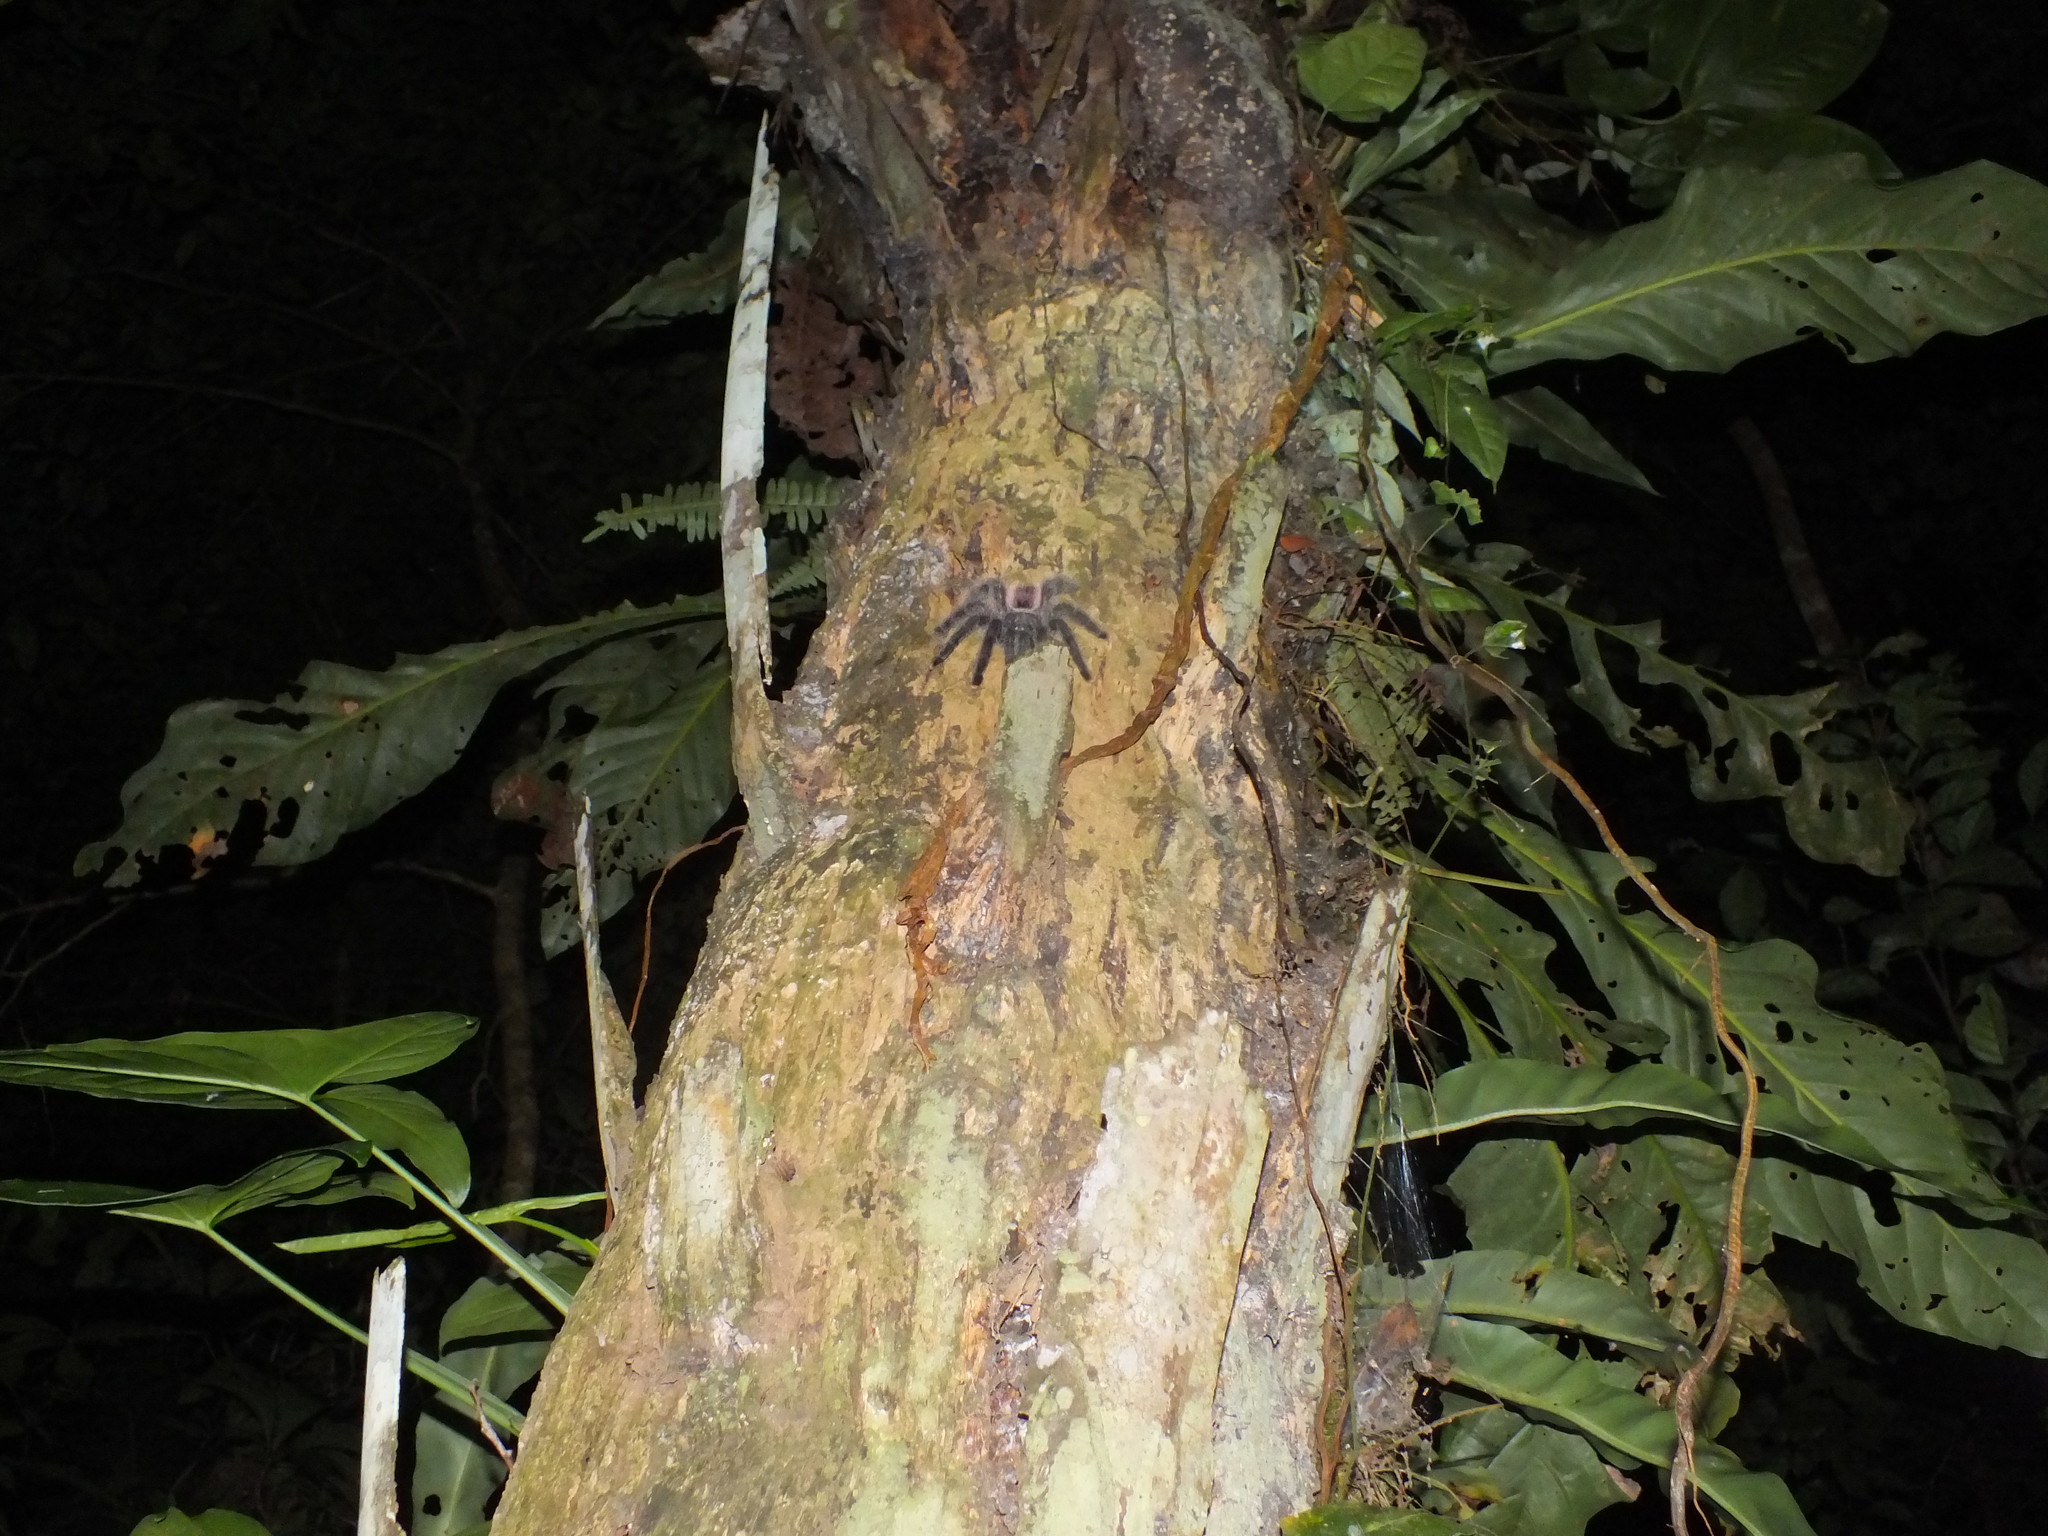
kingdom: Animalia
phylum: Arthropoda
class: Arachnida
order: Araneae
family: Theraphosidae
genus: Avicularia
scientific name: Avicularia juruensis
